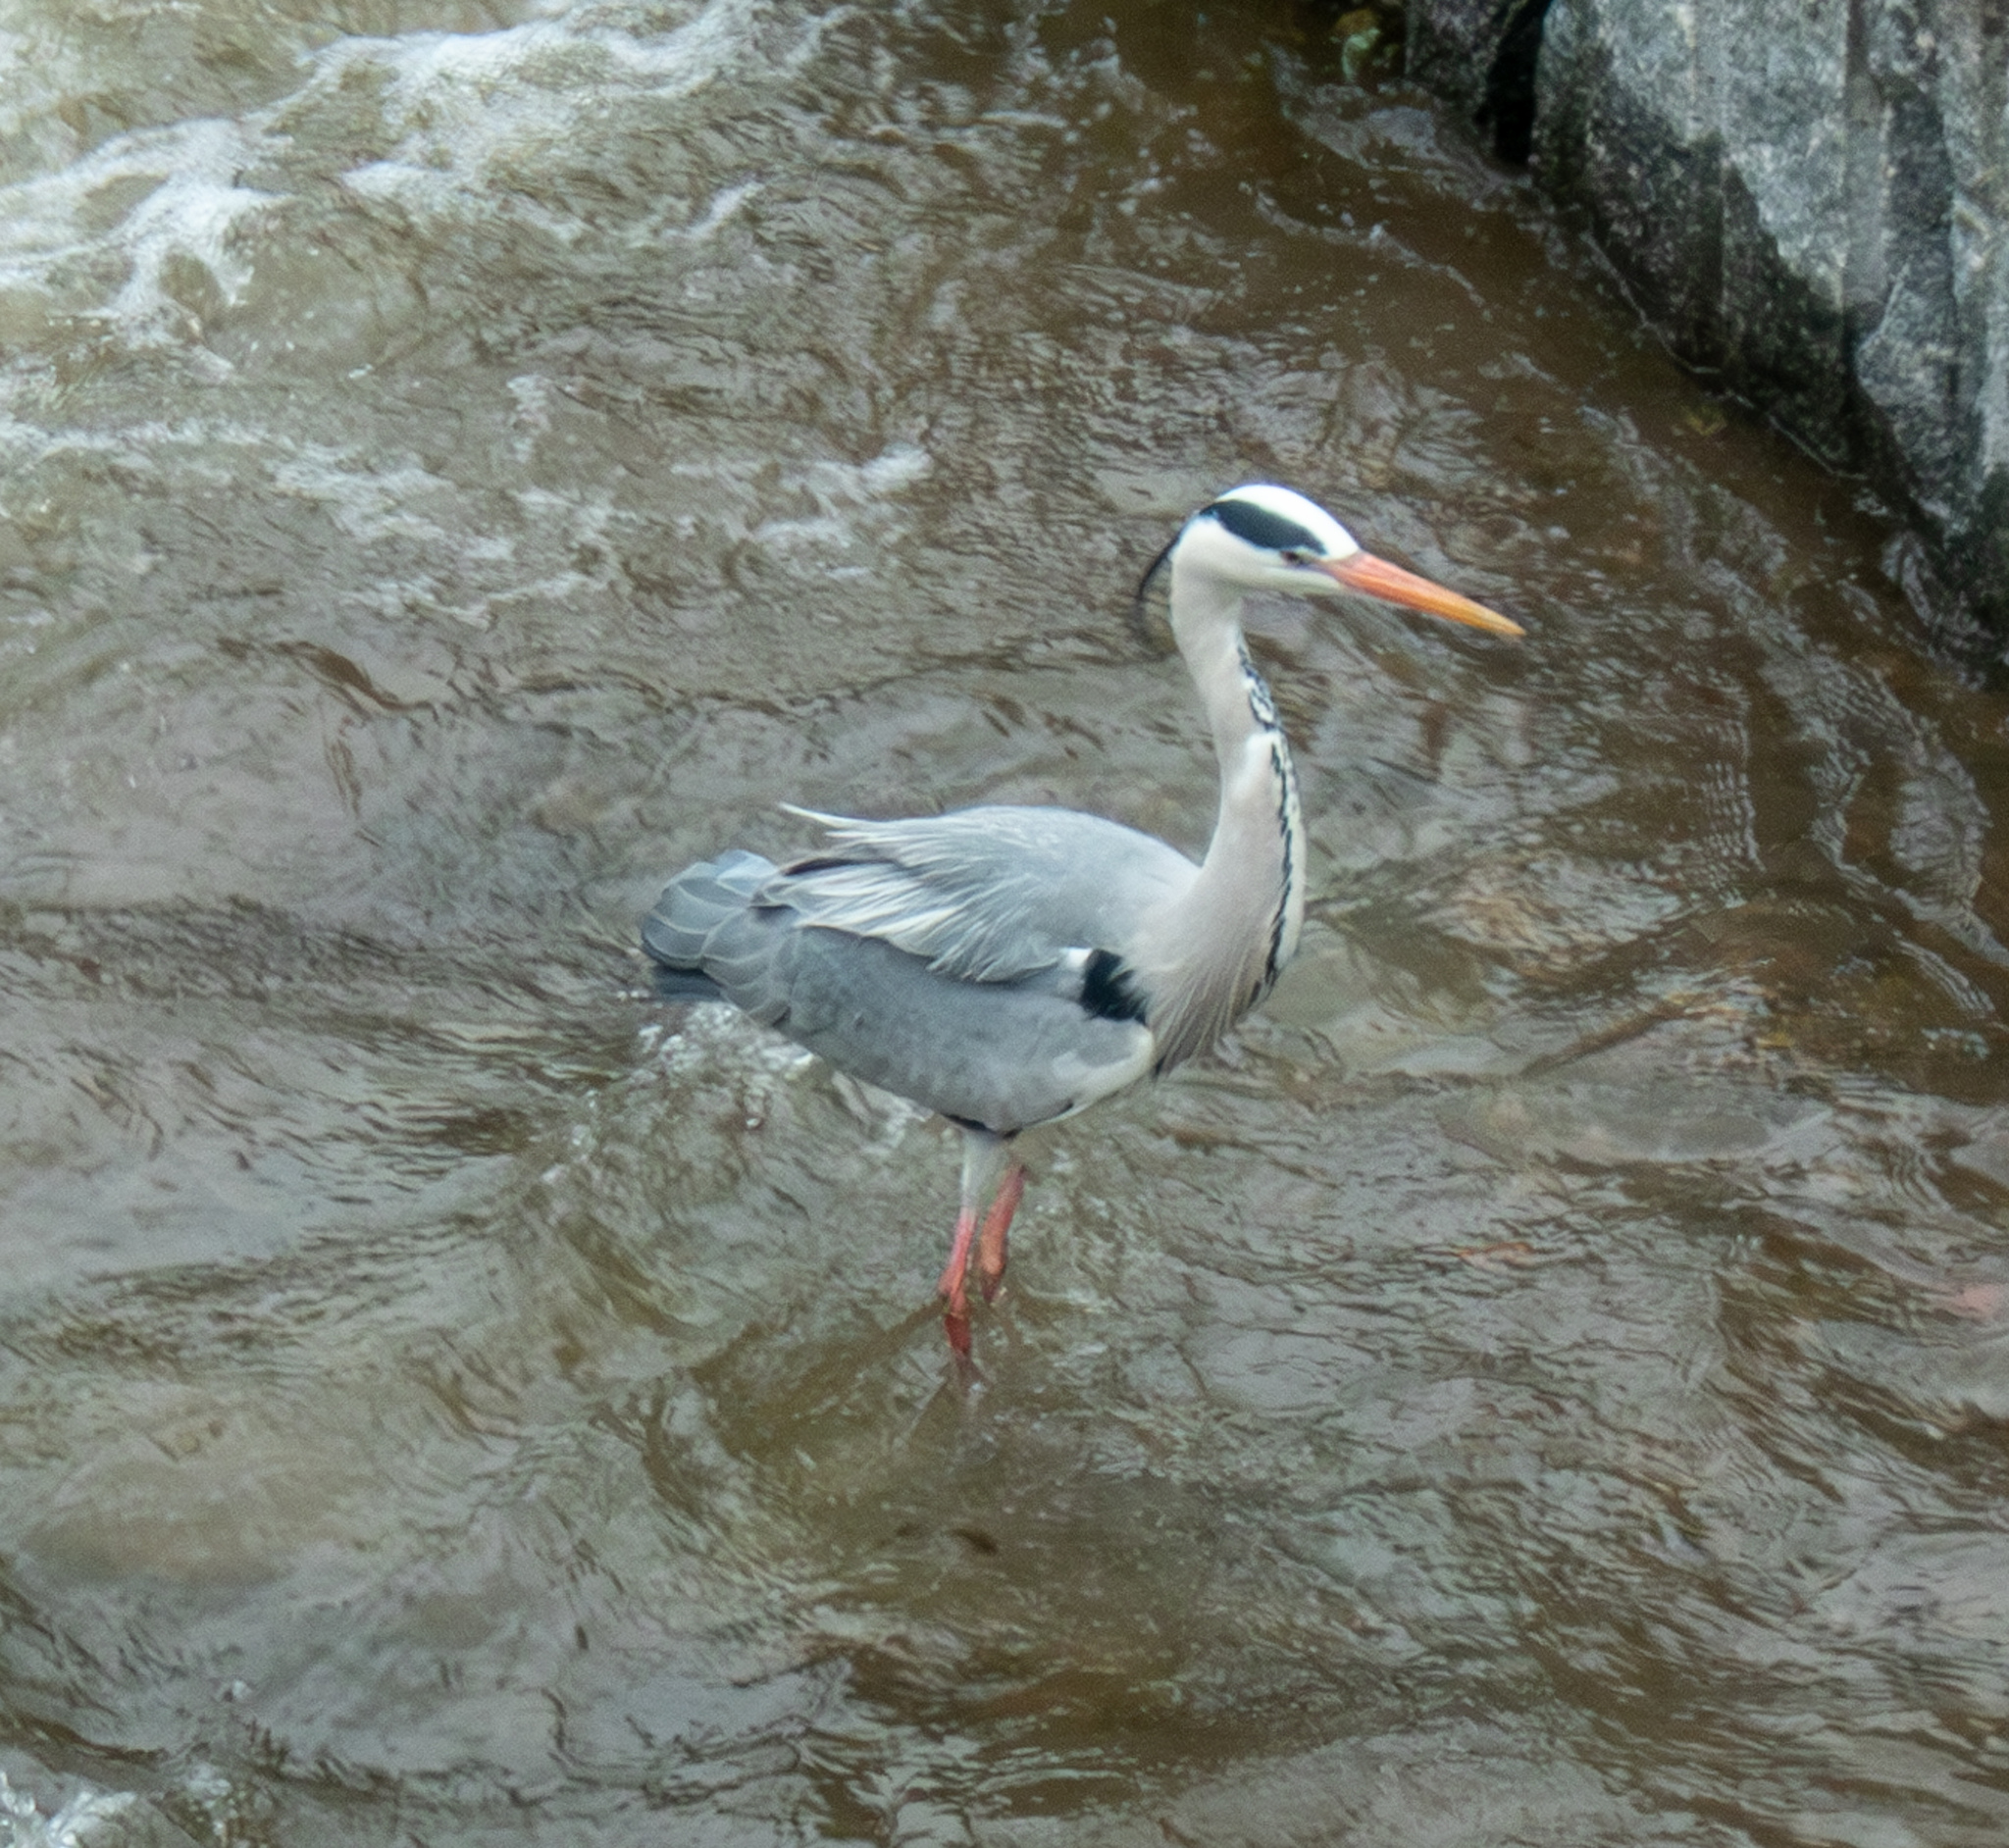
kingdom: Animalia
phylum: Chordata
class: Aves
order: Pelecaniformes
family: Ardeidae
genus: Ardea
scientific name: Ardea cinerea
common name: Grey heron
